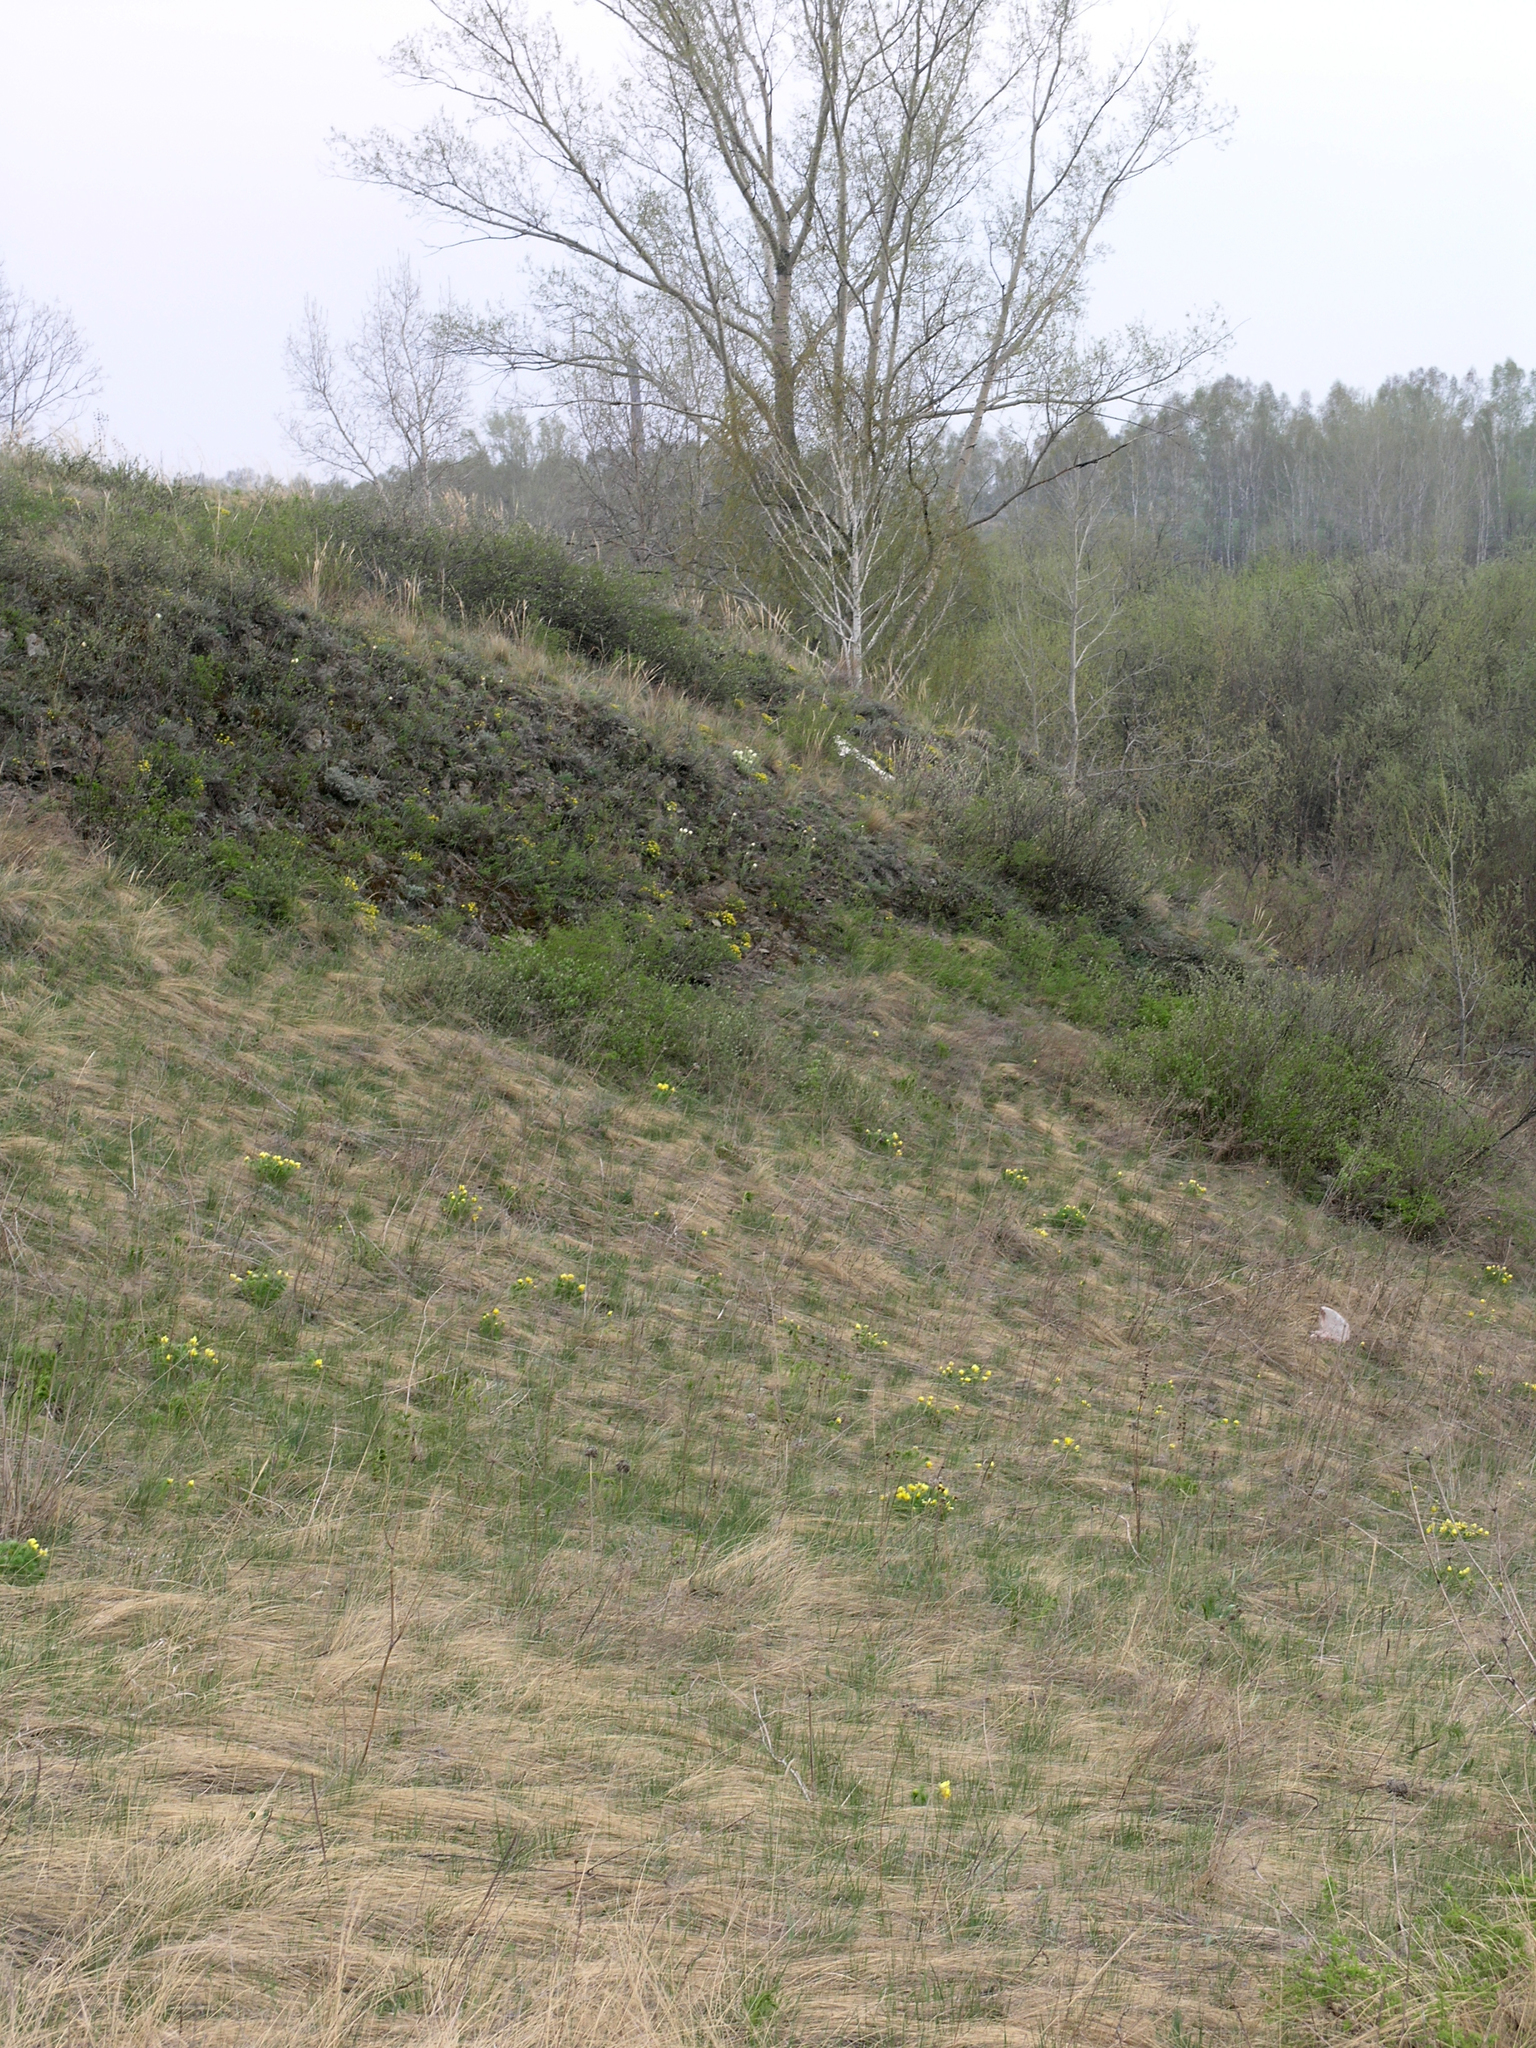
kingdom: Plantae
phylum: Tracheophyta
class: Magnoliopsida
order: Rosales
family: Rosaceae
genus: Potentilla
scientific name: Potentilla humifusa
